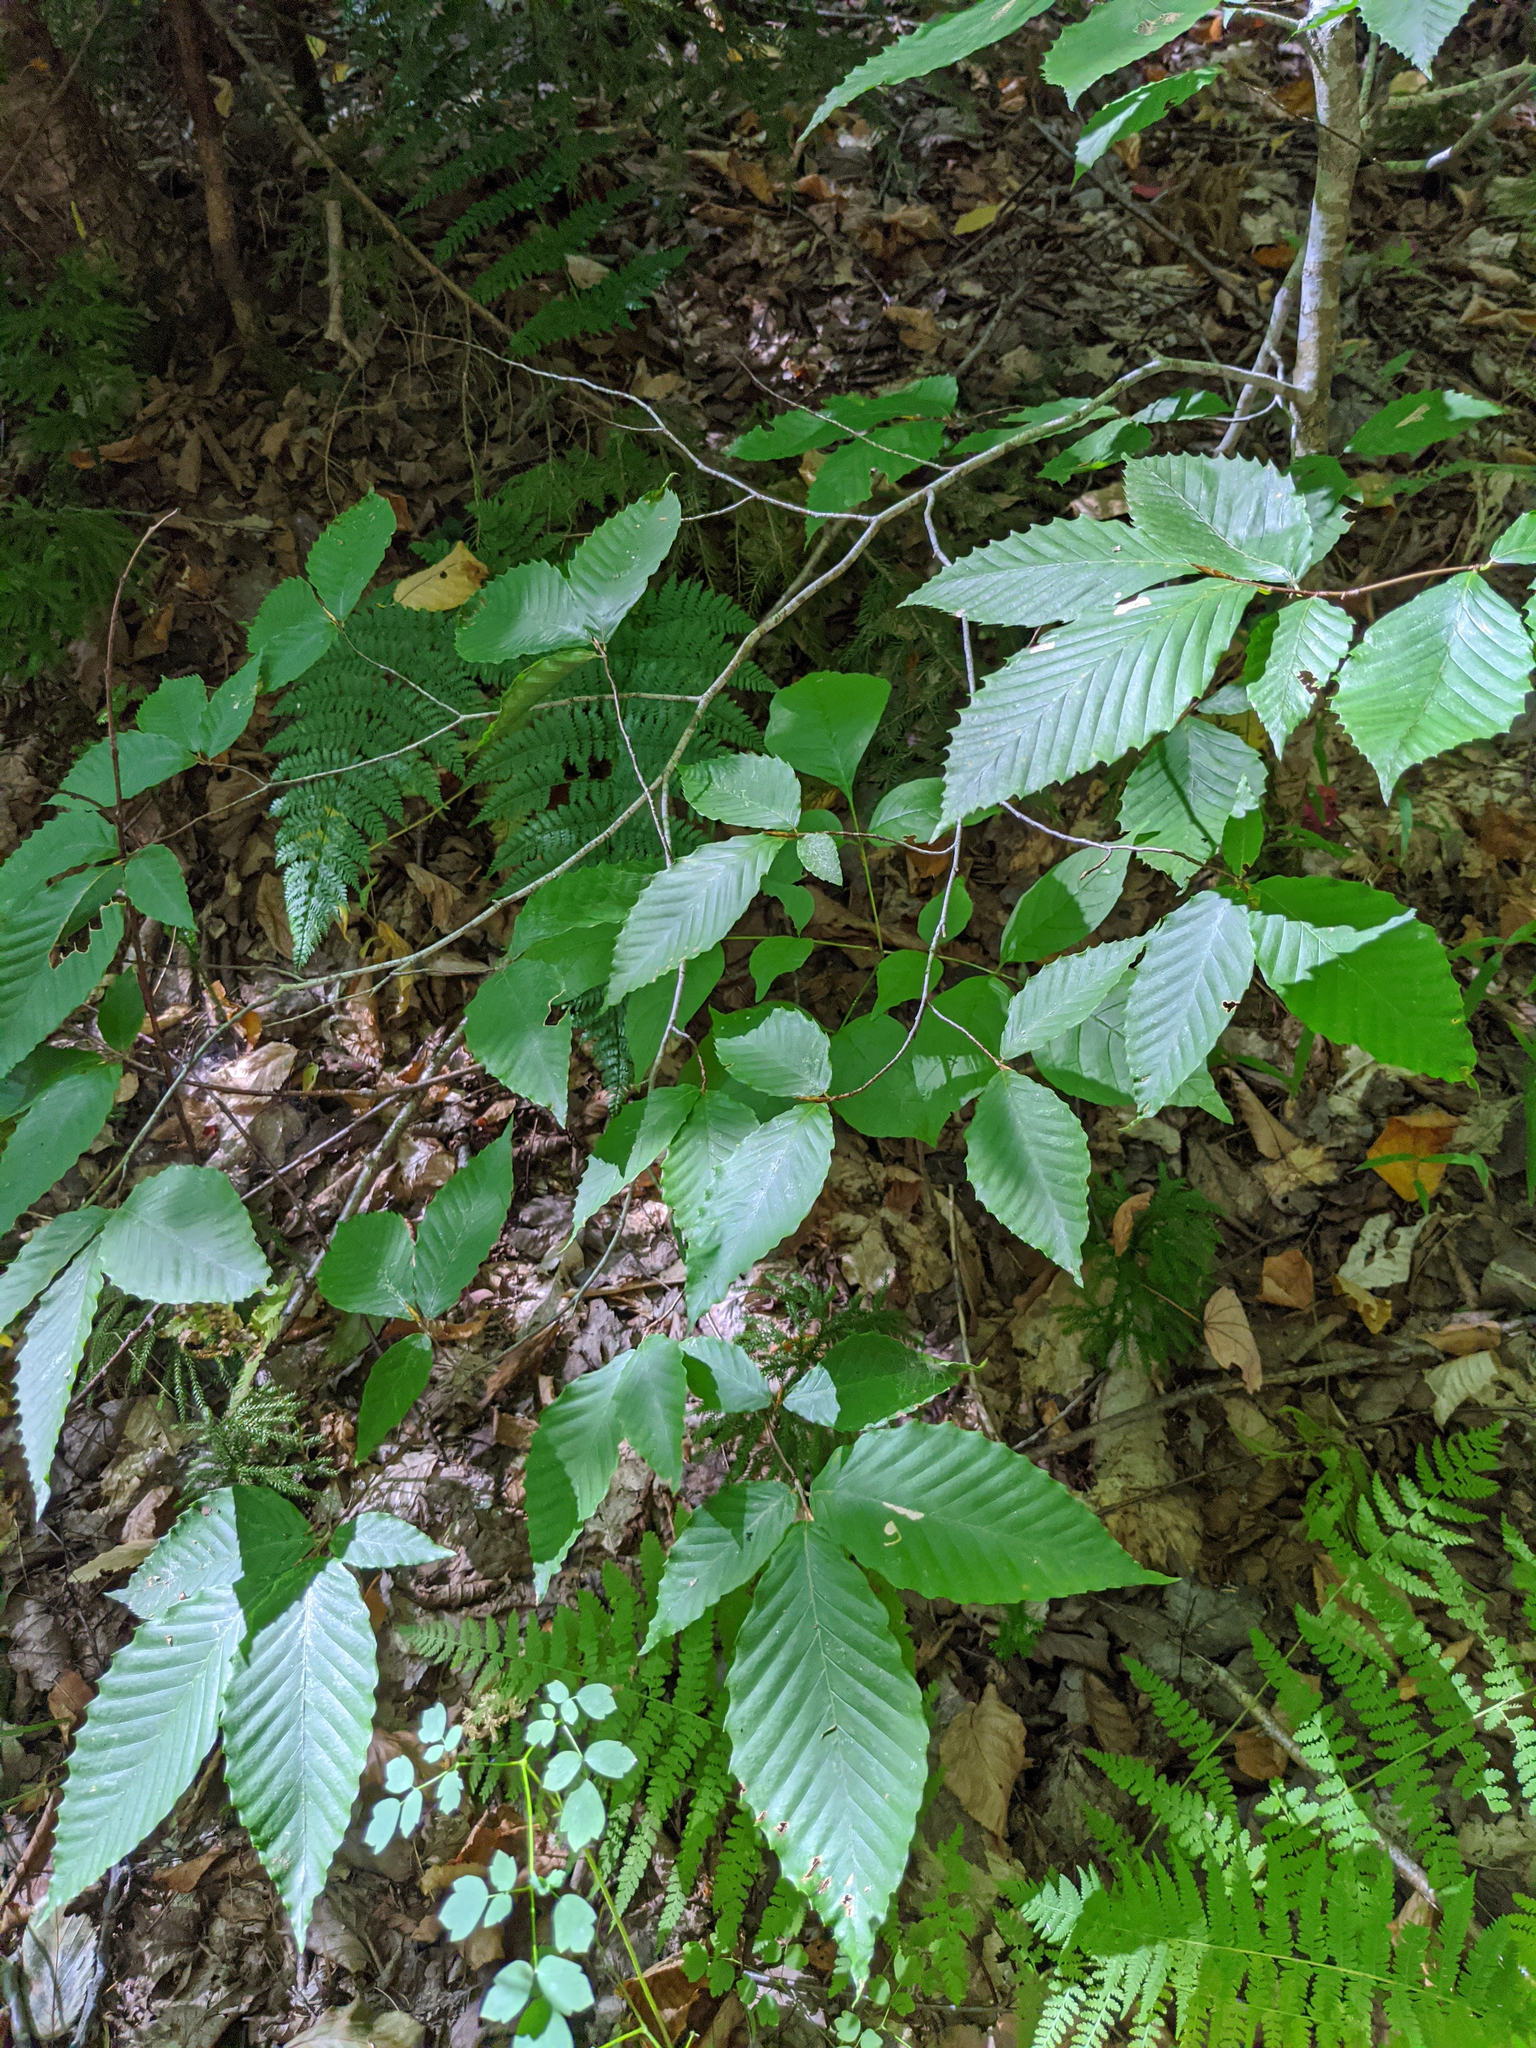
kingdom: Plantae
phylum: Tracheophyta
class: Magnoliopsida
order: Fagales
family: Fagaceae
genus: Fagus
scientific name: Fagus grandifolia
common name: American beech
